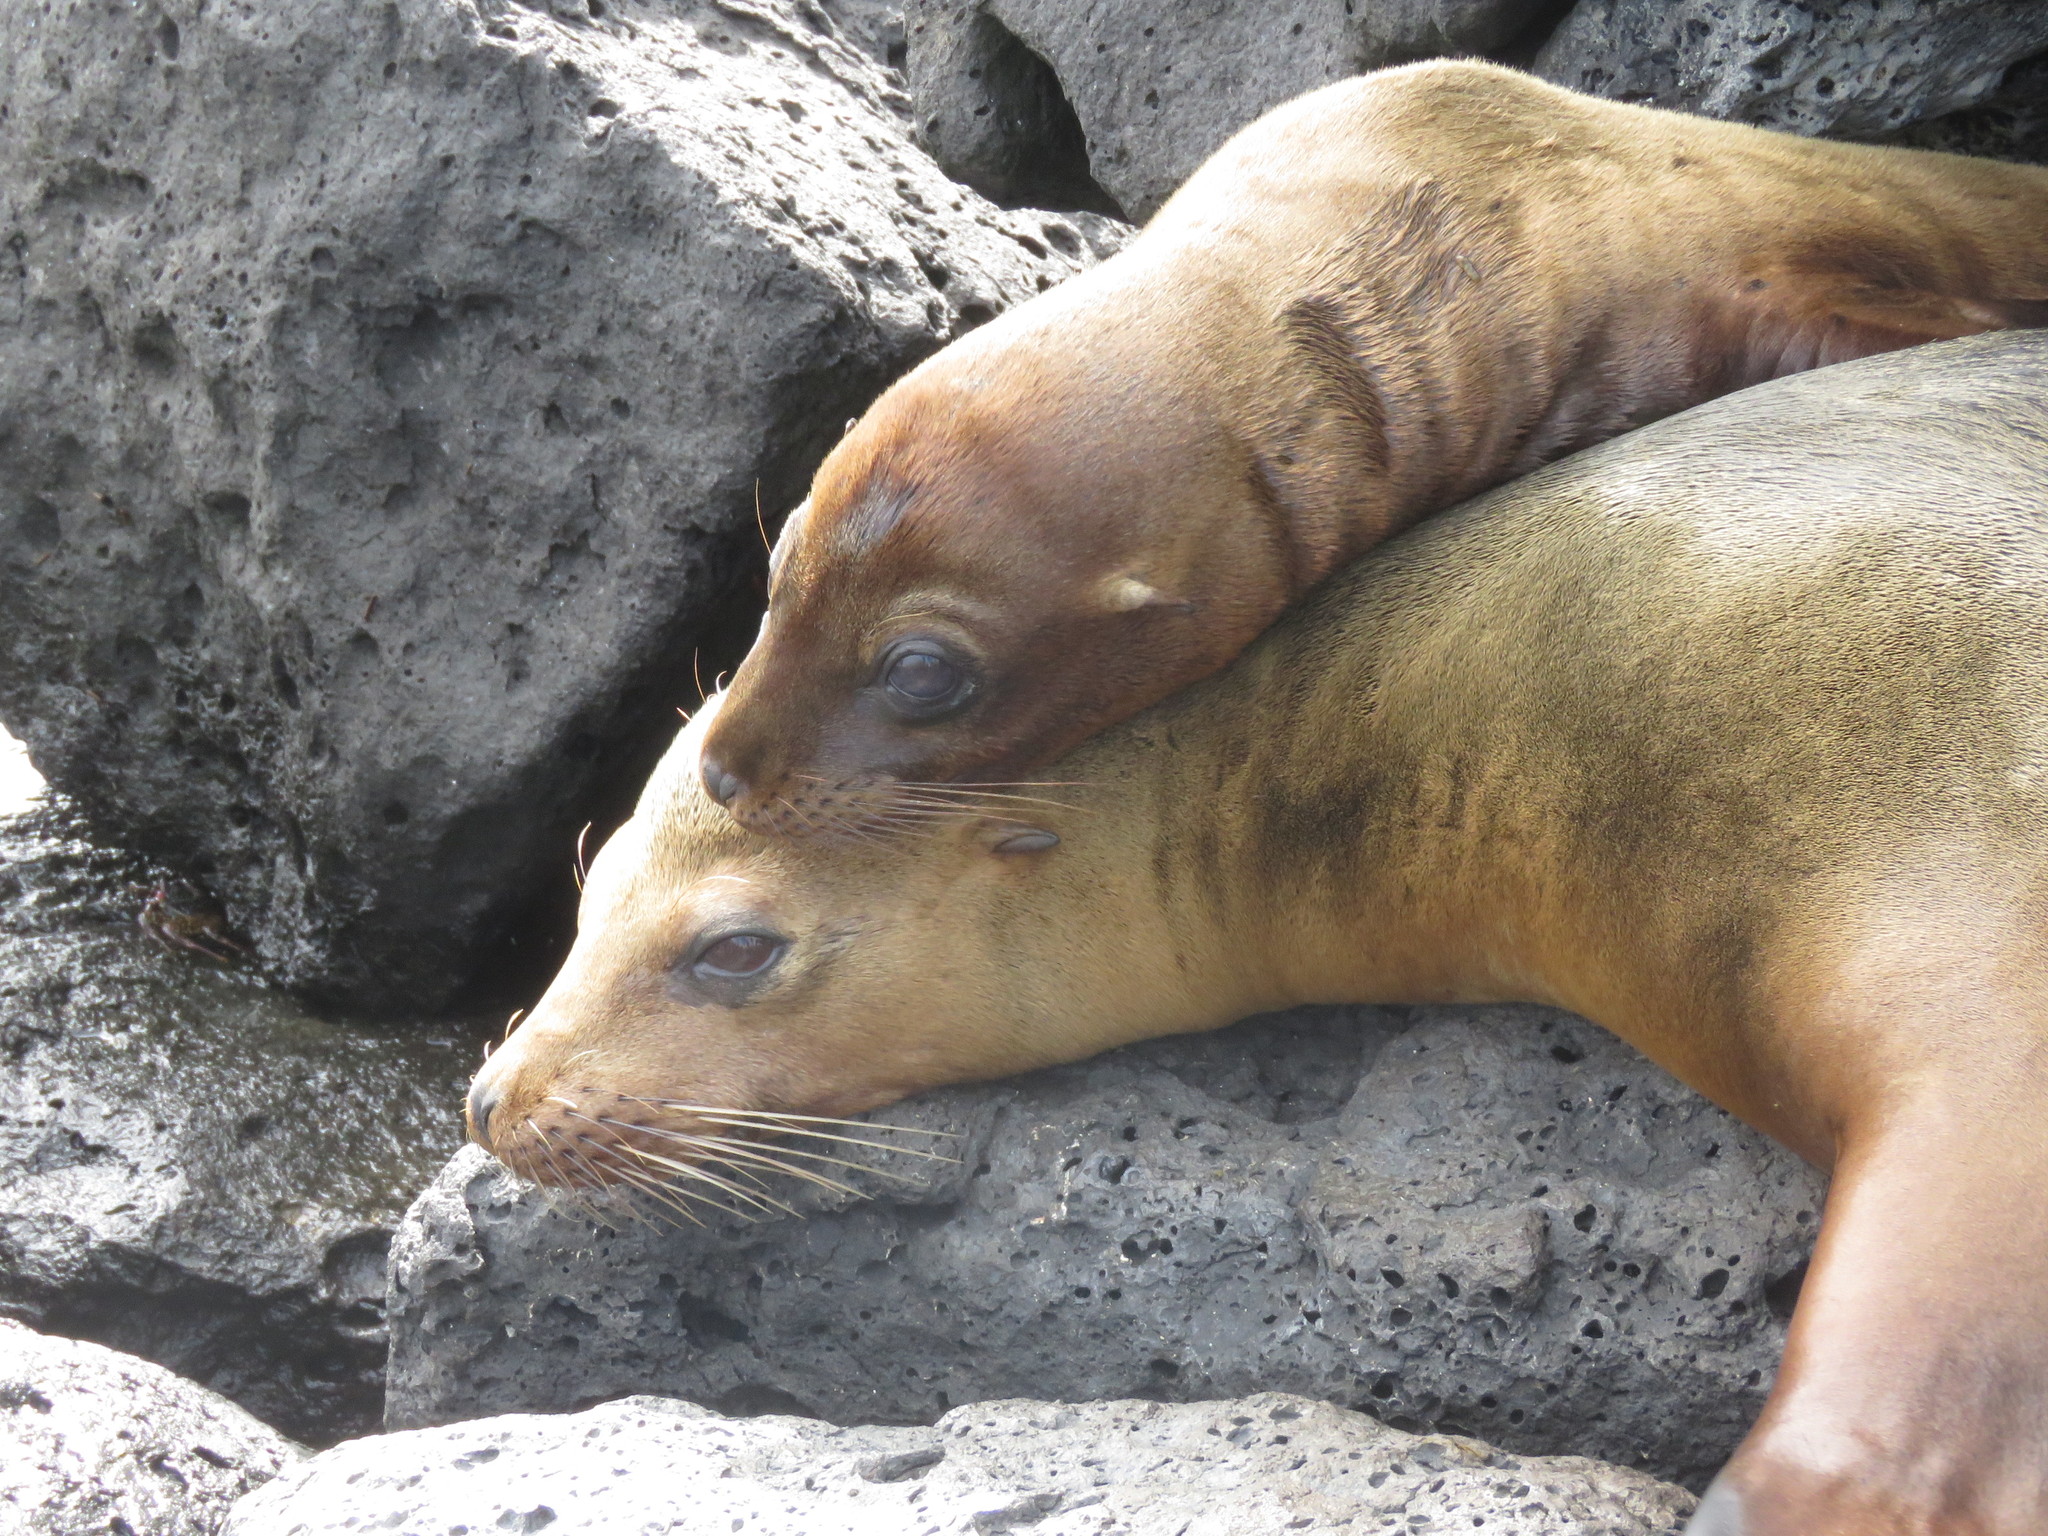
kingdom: Animalia
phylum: Chordata
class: Mammalia
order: Carnivora
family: Otariidae
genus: Zalophus
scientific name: Zalophus wollebaeki
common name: Galapagos sea lion
